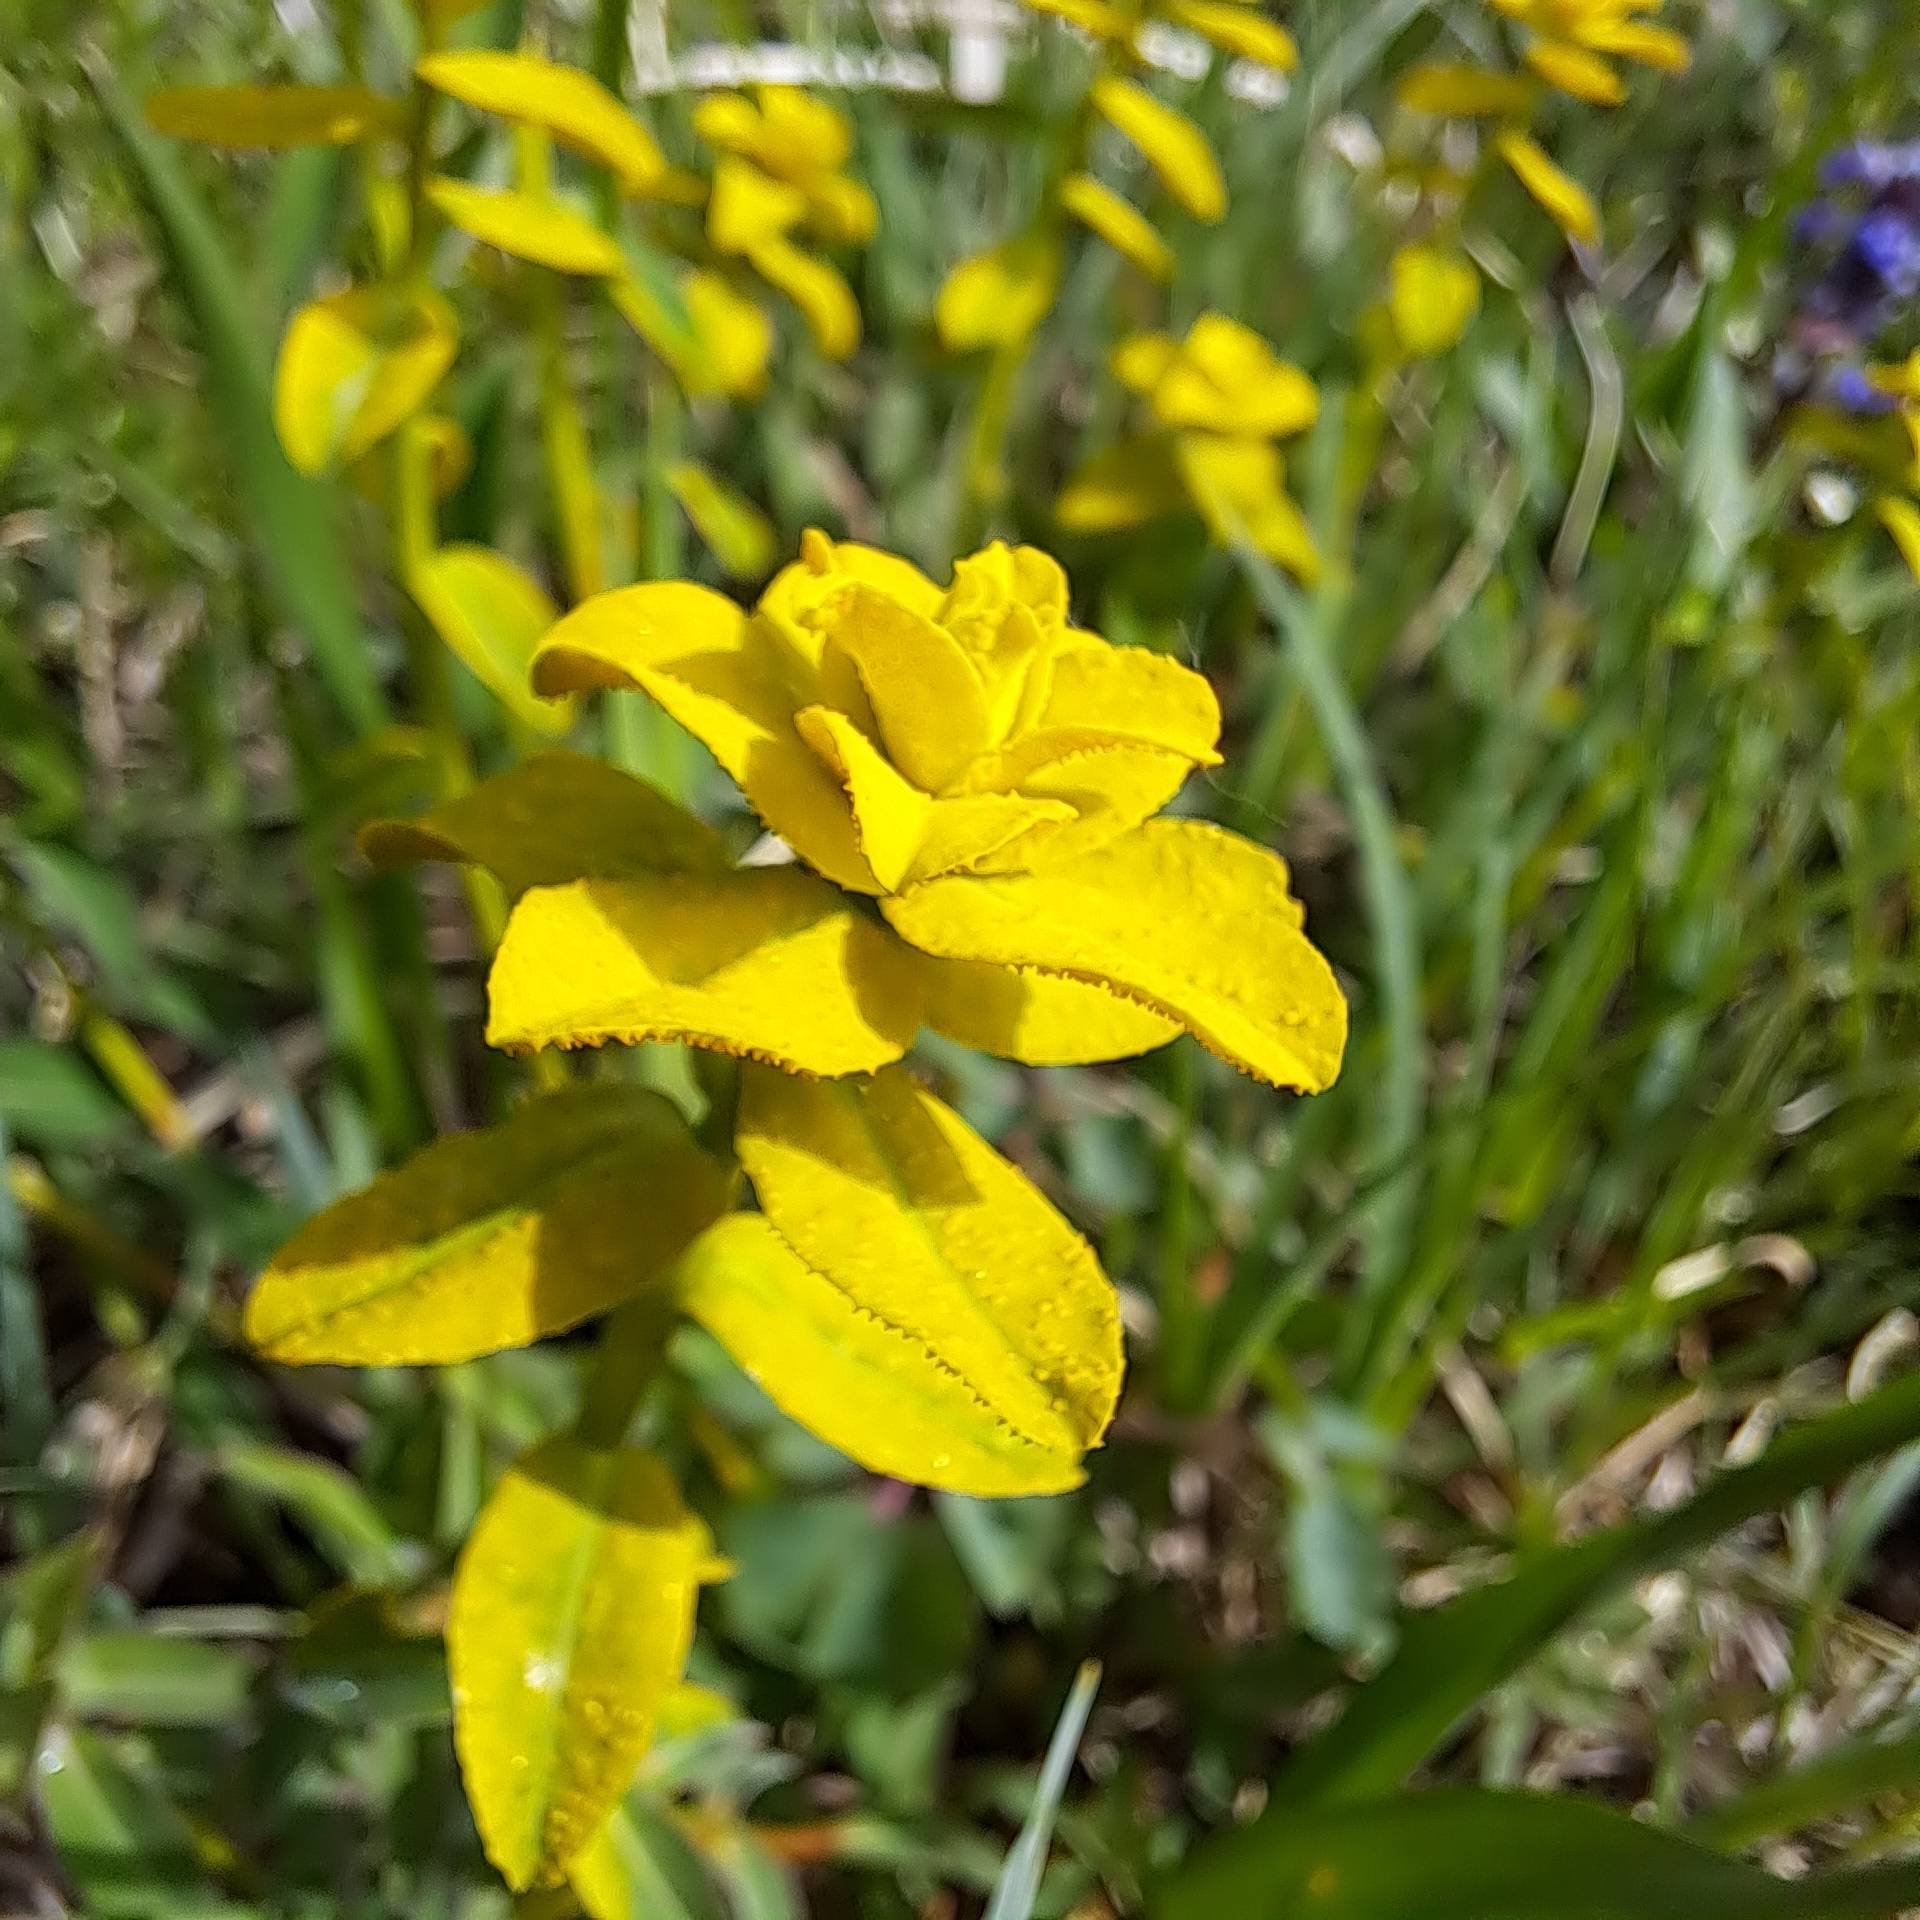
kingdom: Fungi
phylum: Basidiomycota
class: Pucciniomycetes
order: Pucciniales
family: Pucciniaceae
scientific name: Pucciniaceae
